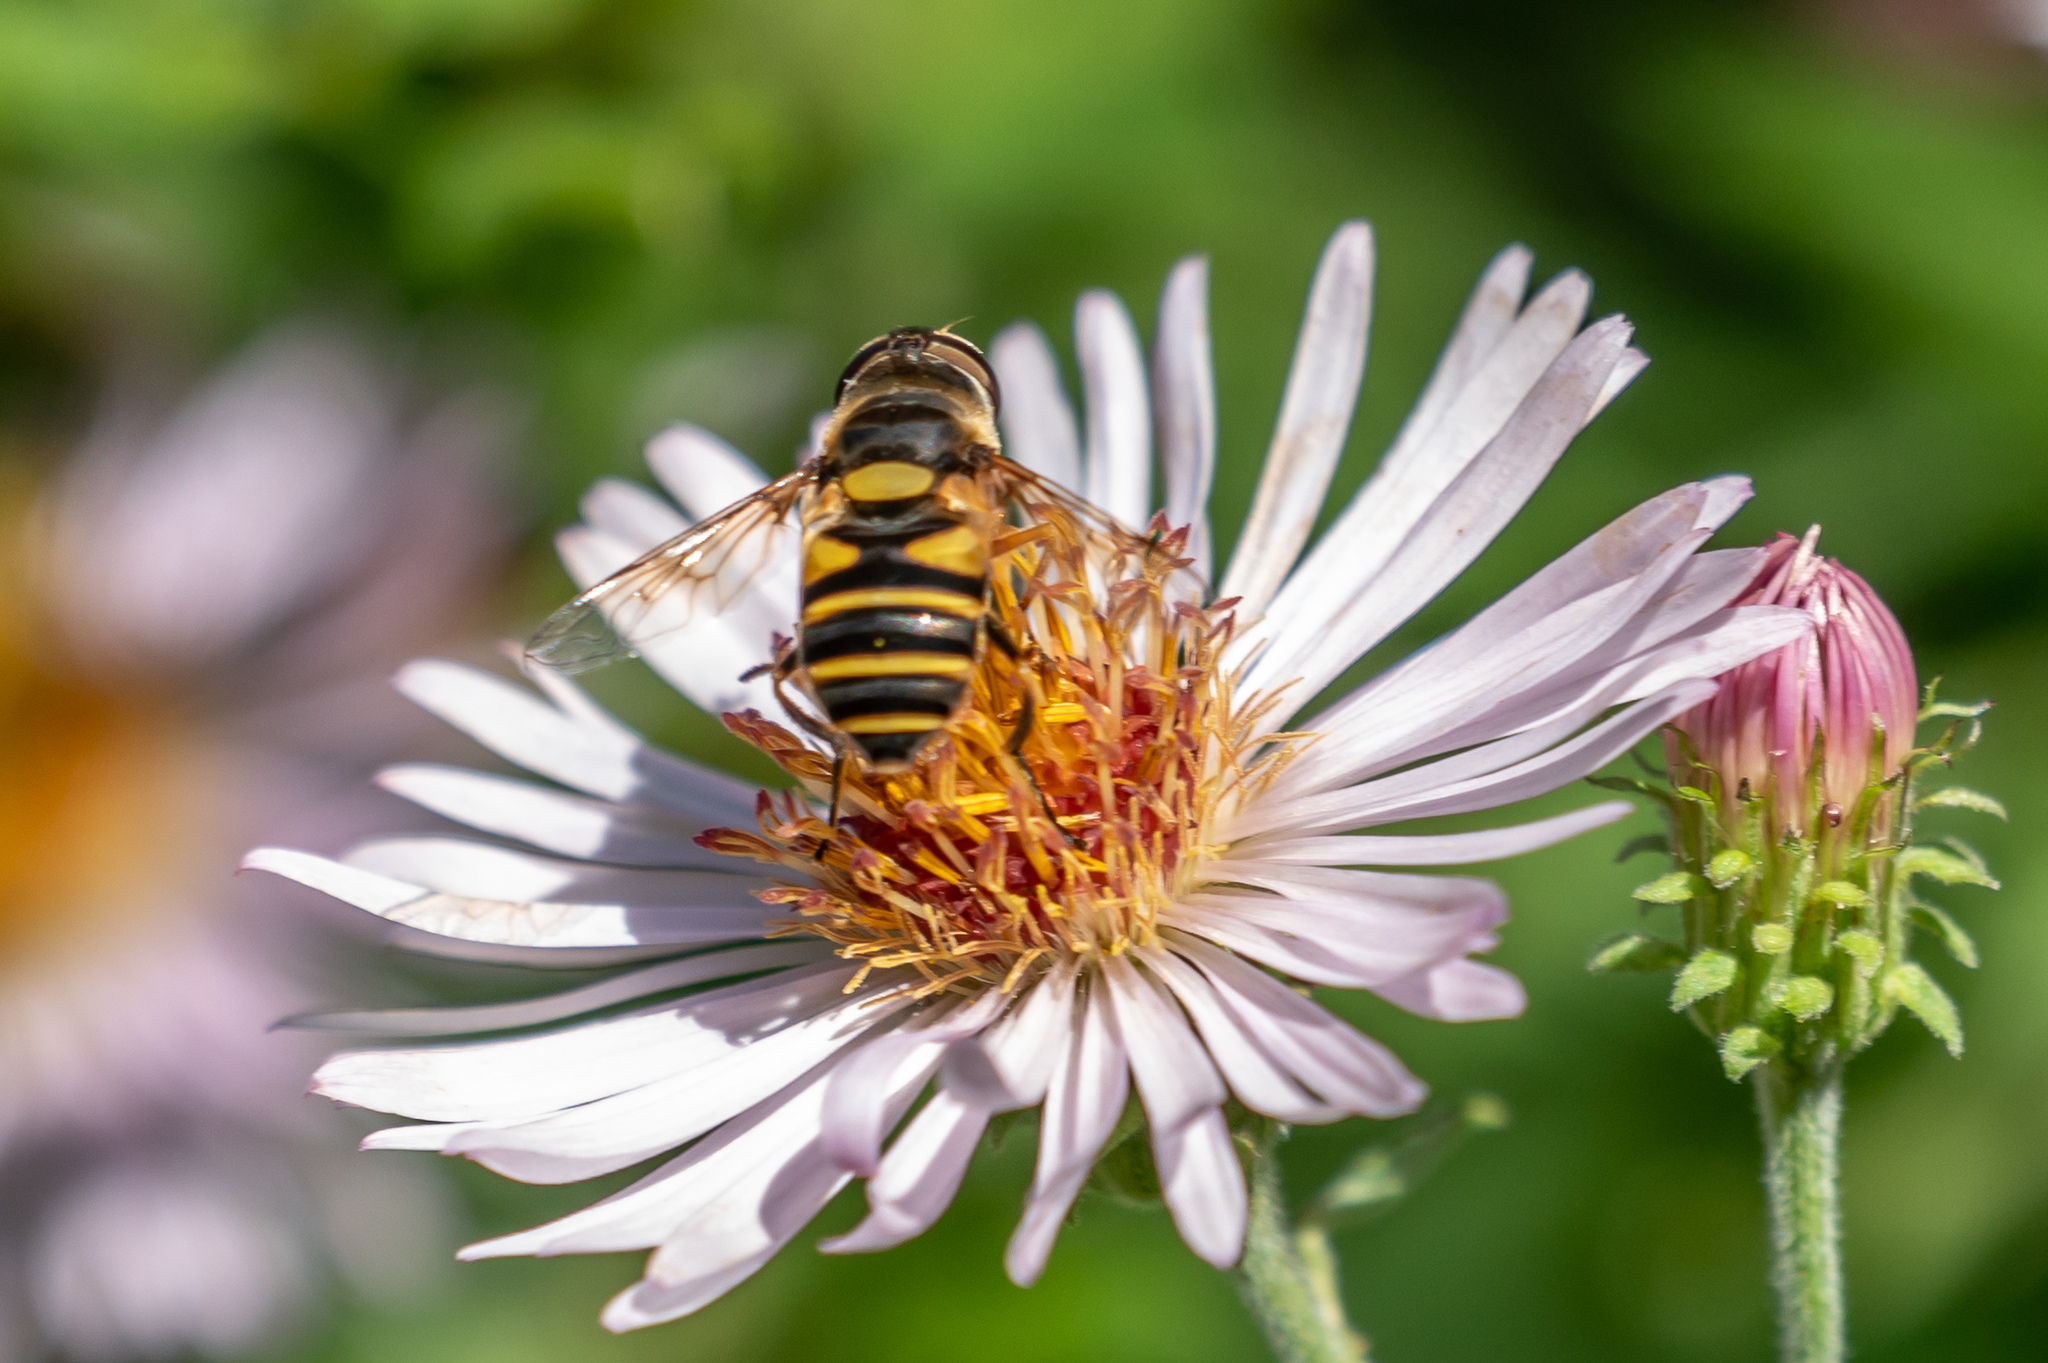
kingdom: Animalia
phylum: Arthropoda
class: Insecta
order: Diptera
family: Syrphidae
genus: Eristalis
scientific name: Eristalis transversa
